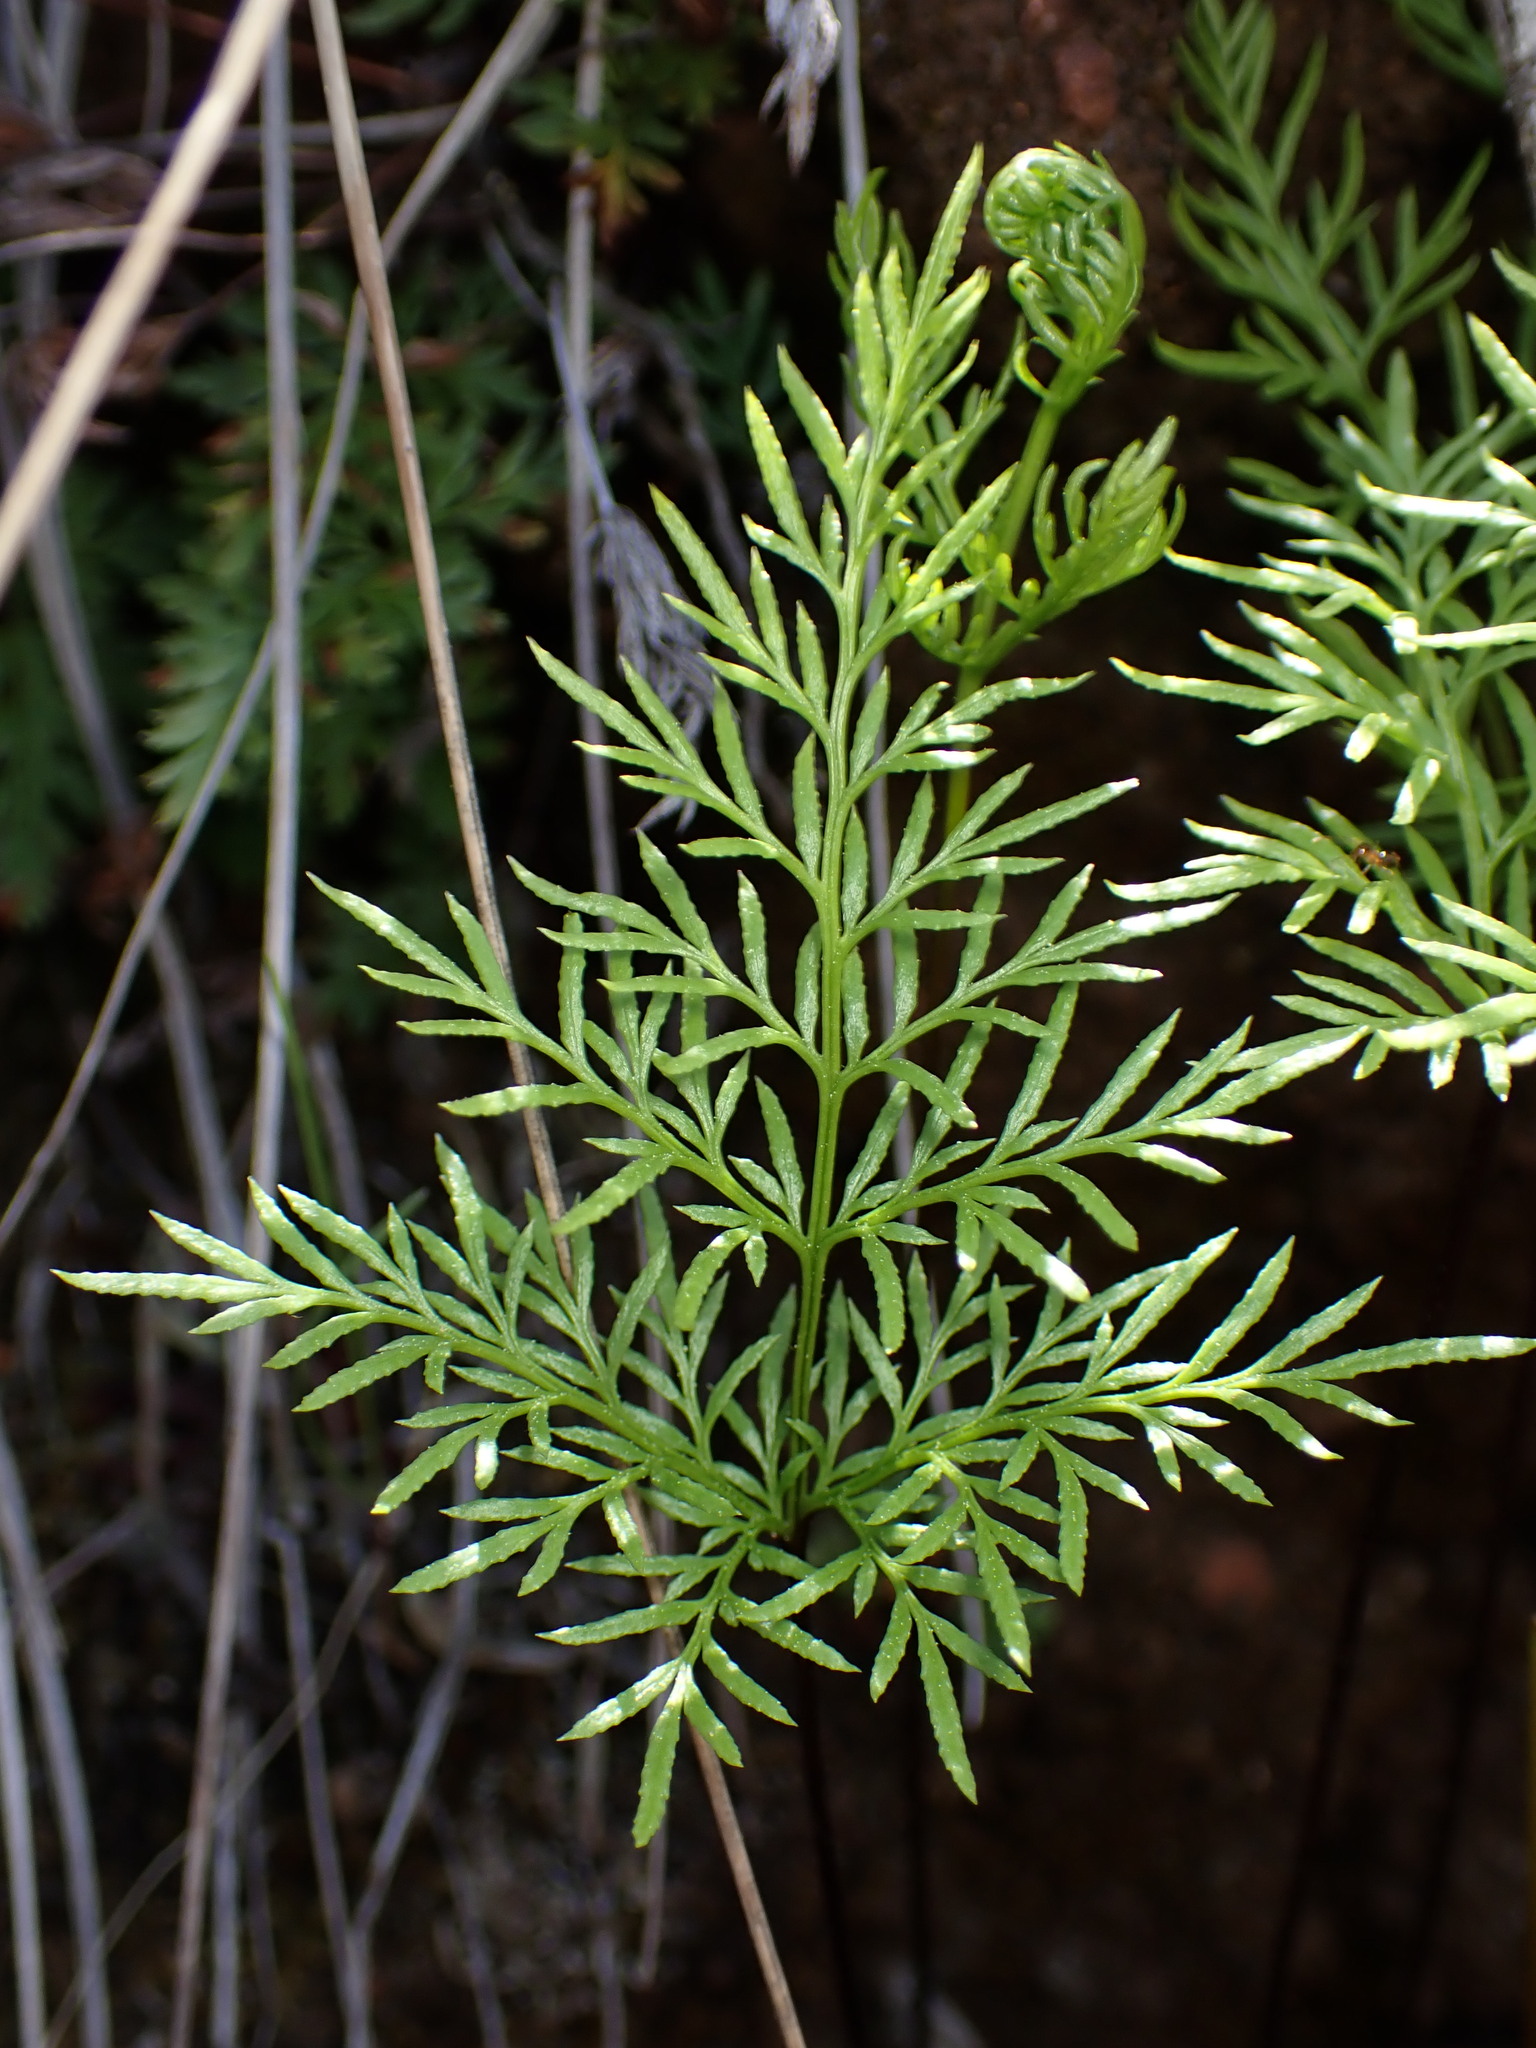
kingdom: Plantae
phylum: Tracheophyta
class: Polypodiopsida
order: Polypodiales
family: Pteridaceae
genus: Aspidotis
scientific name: Aspidotis densa
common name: Indian's dream
